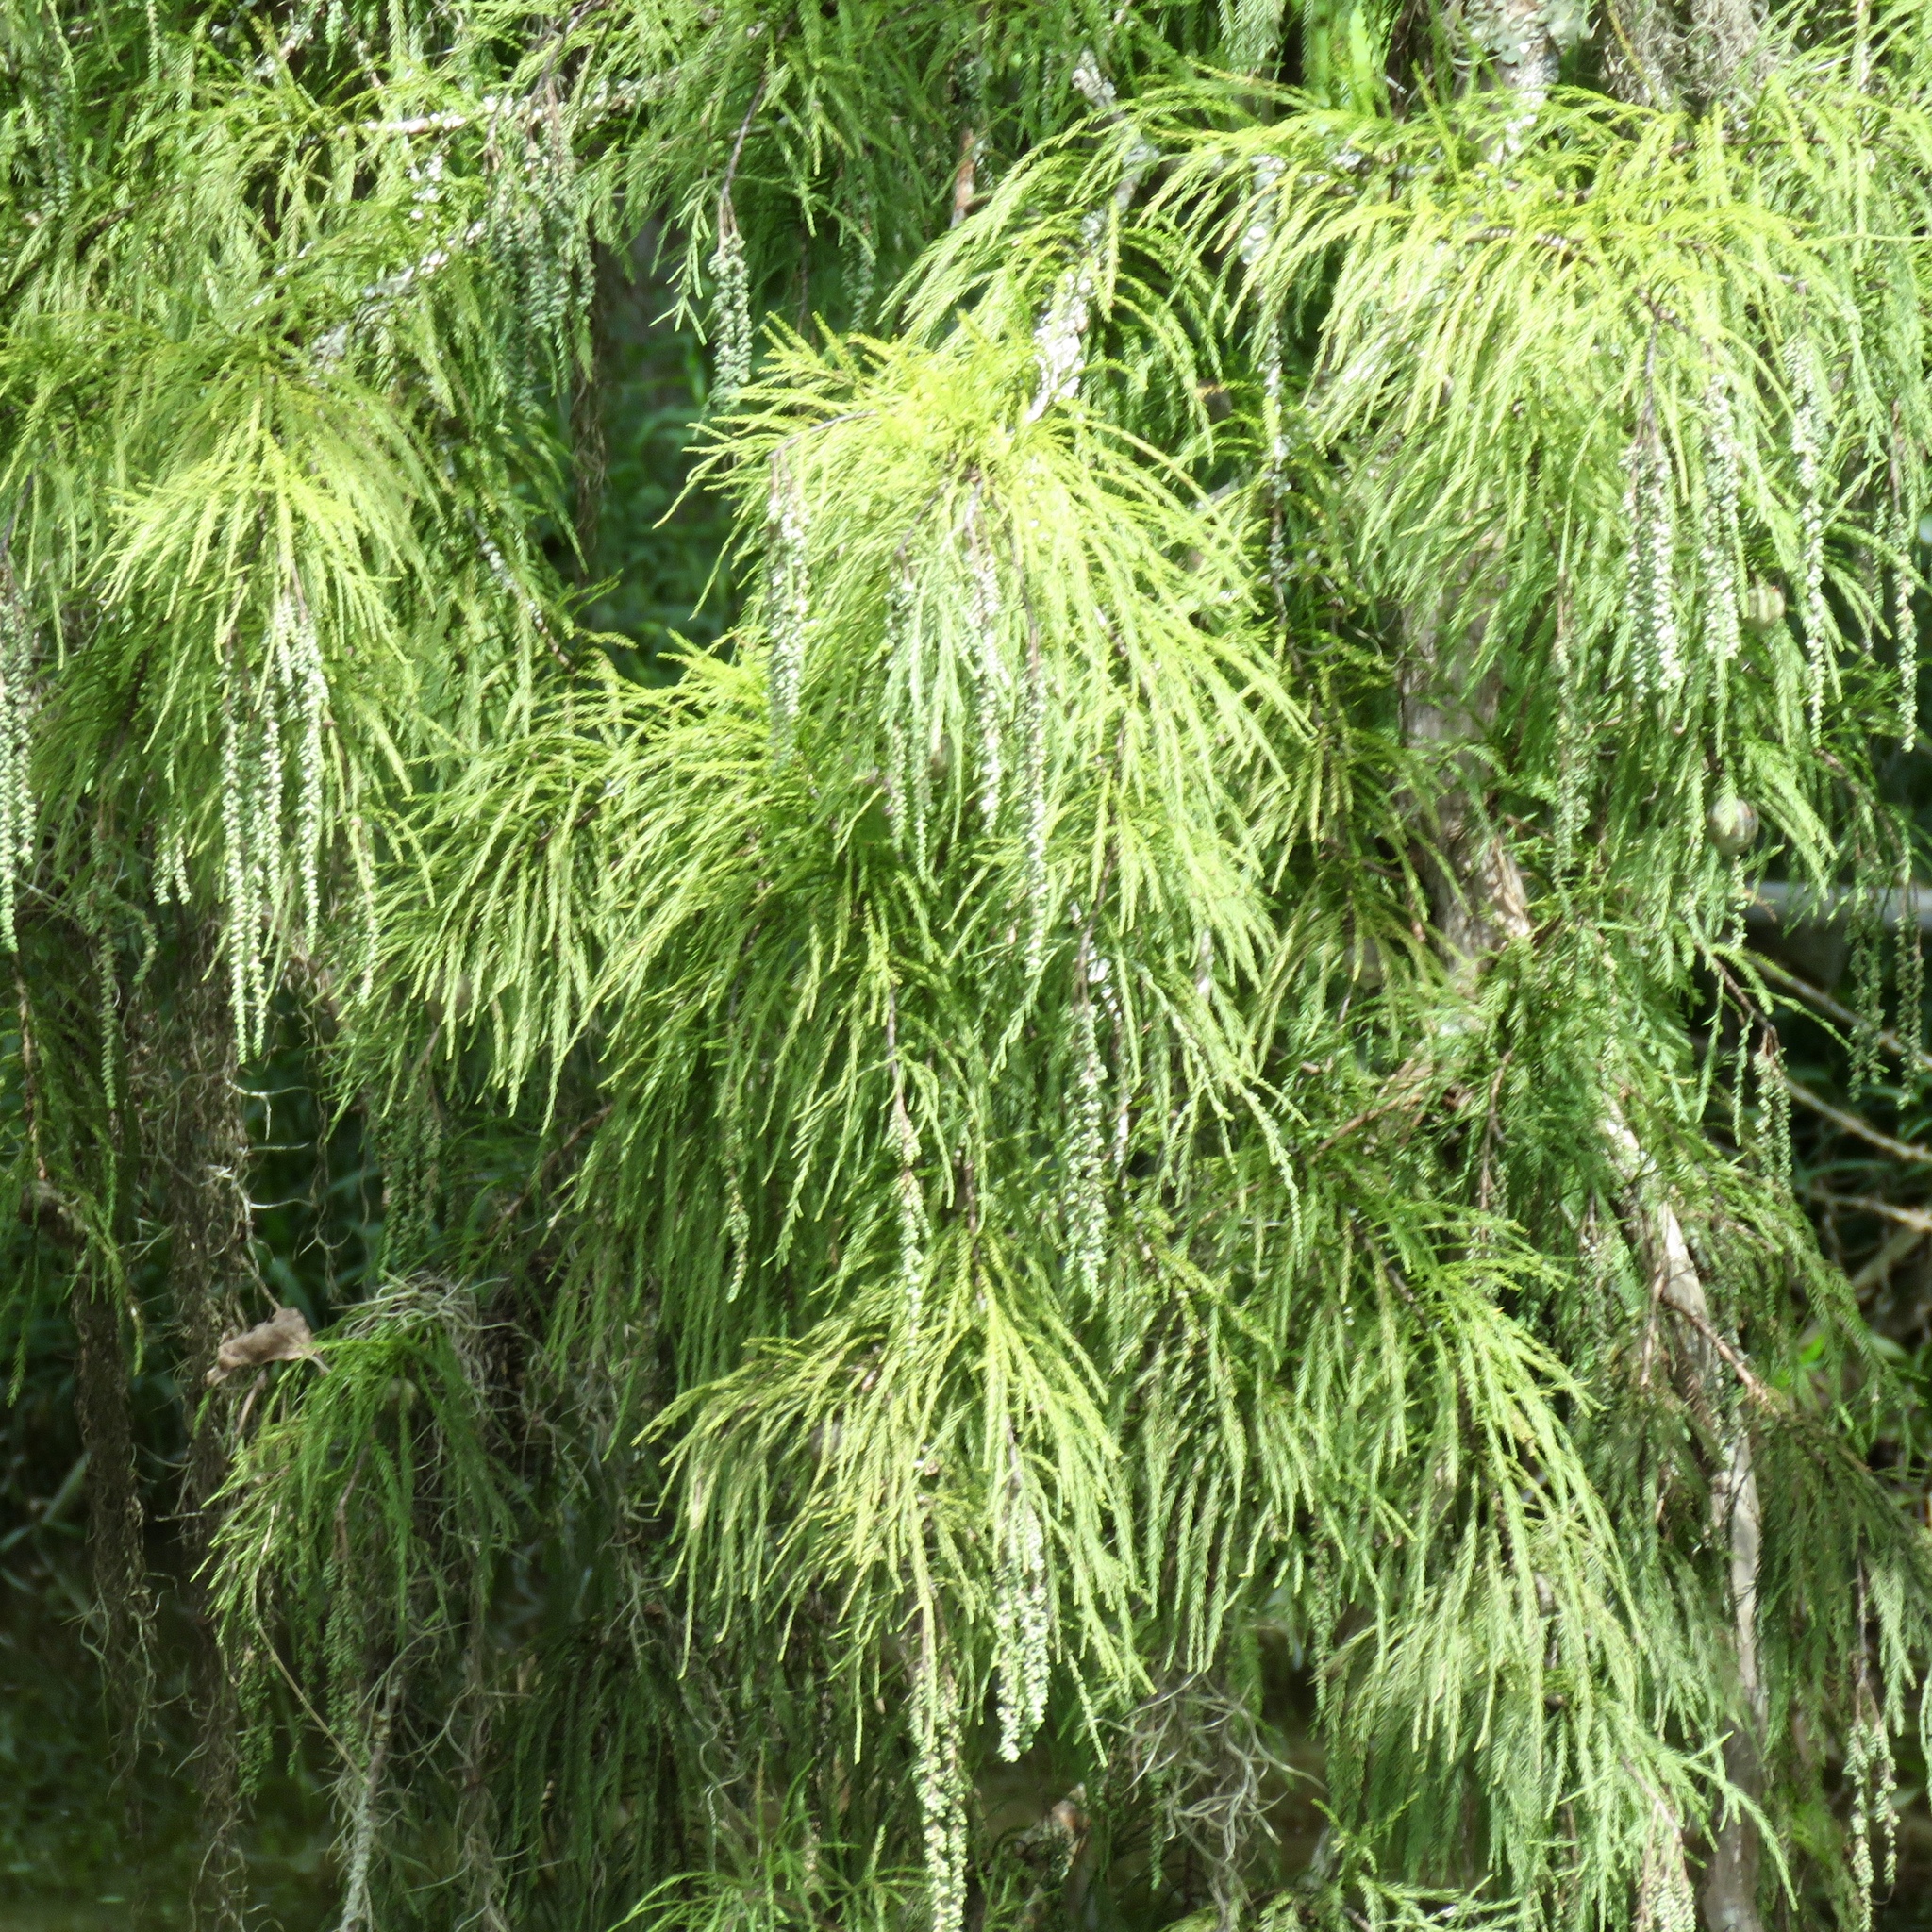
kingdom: Plantae
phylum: Tracheophyta
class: Pinopsida
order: Pinales
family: Cupressaceae
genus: Taxodium
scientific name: Taxodium distichum
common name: Bald cypress
